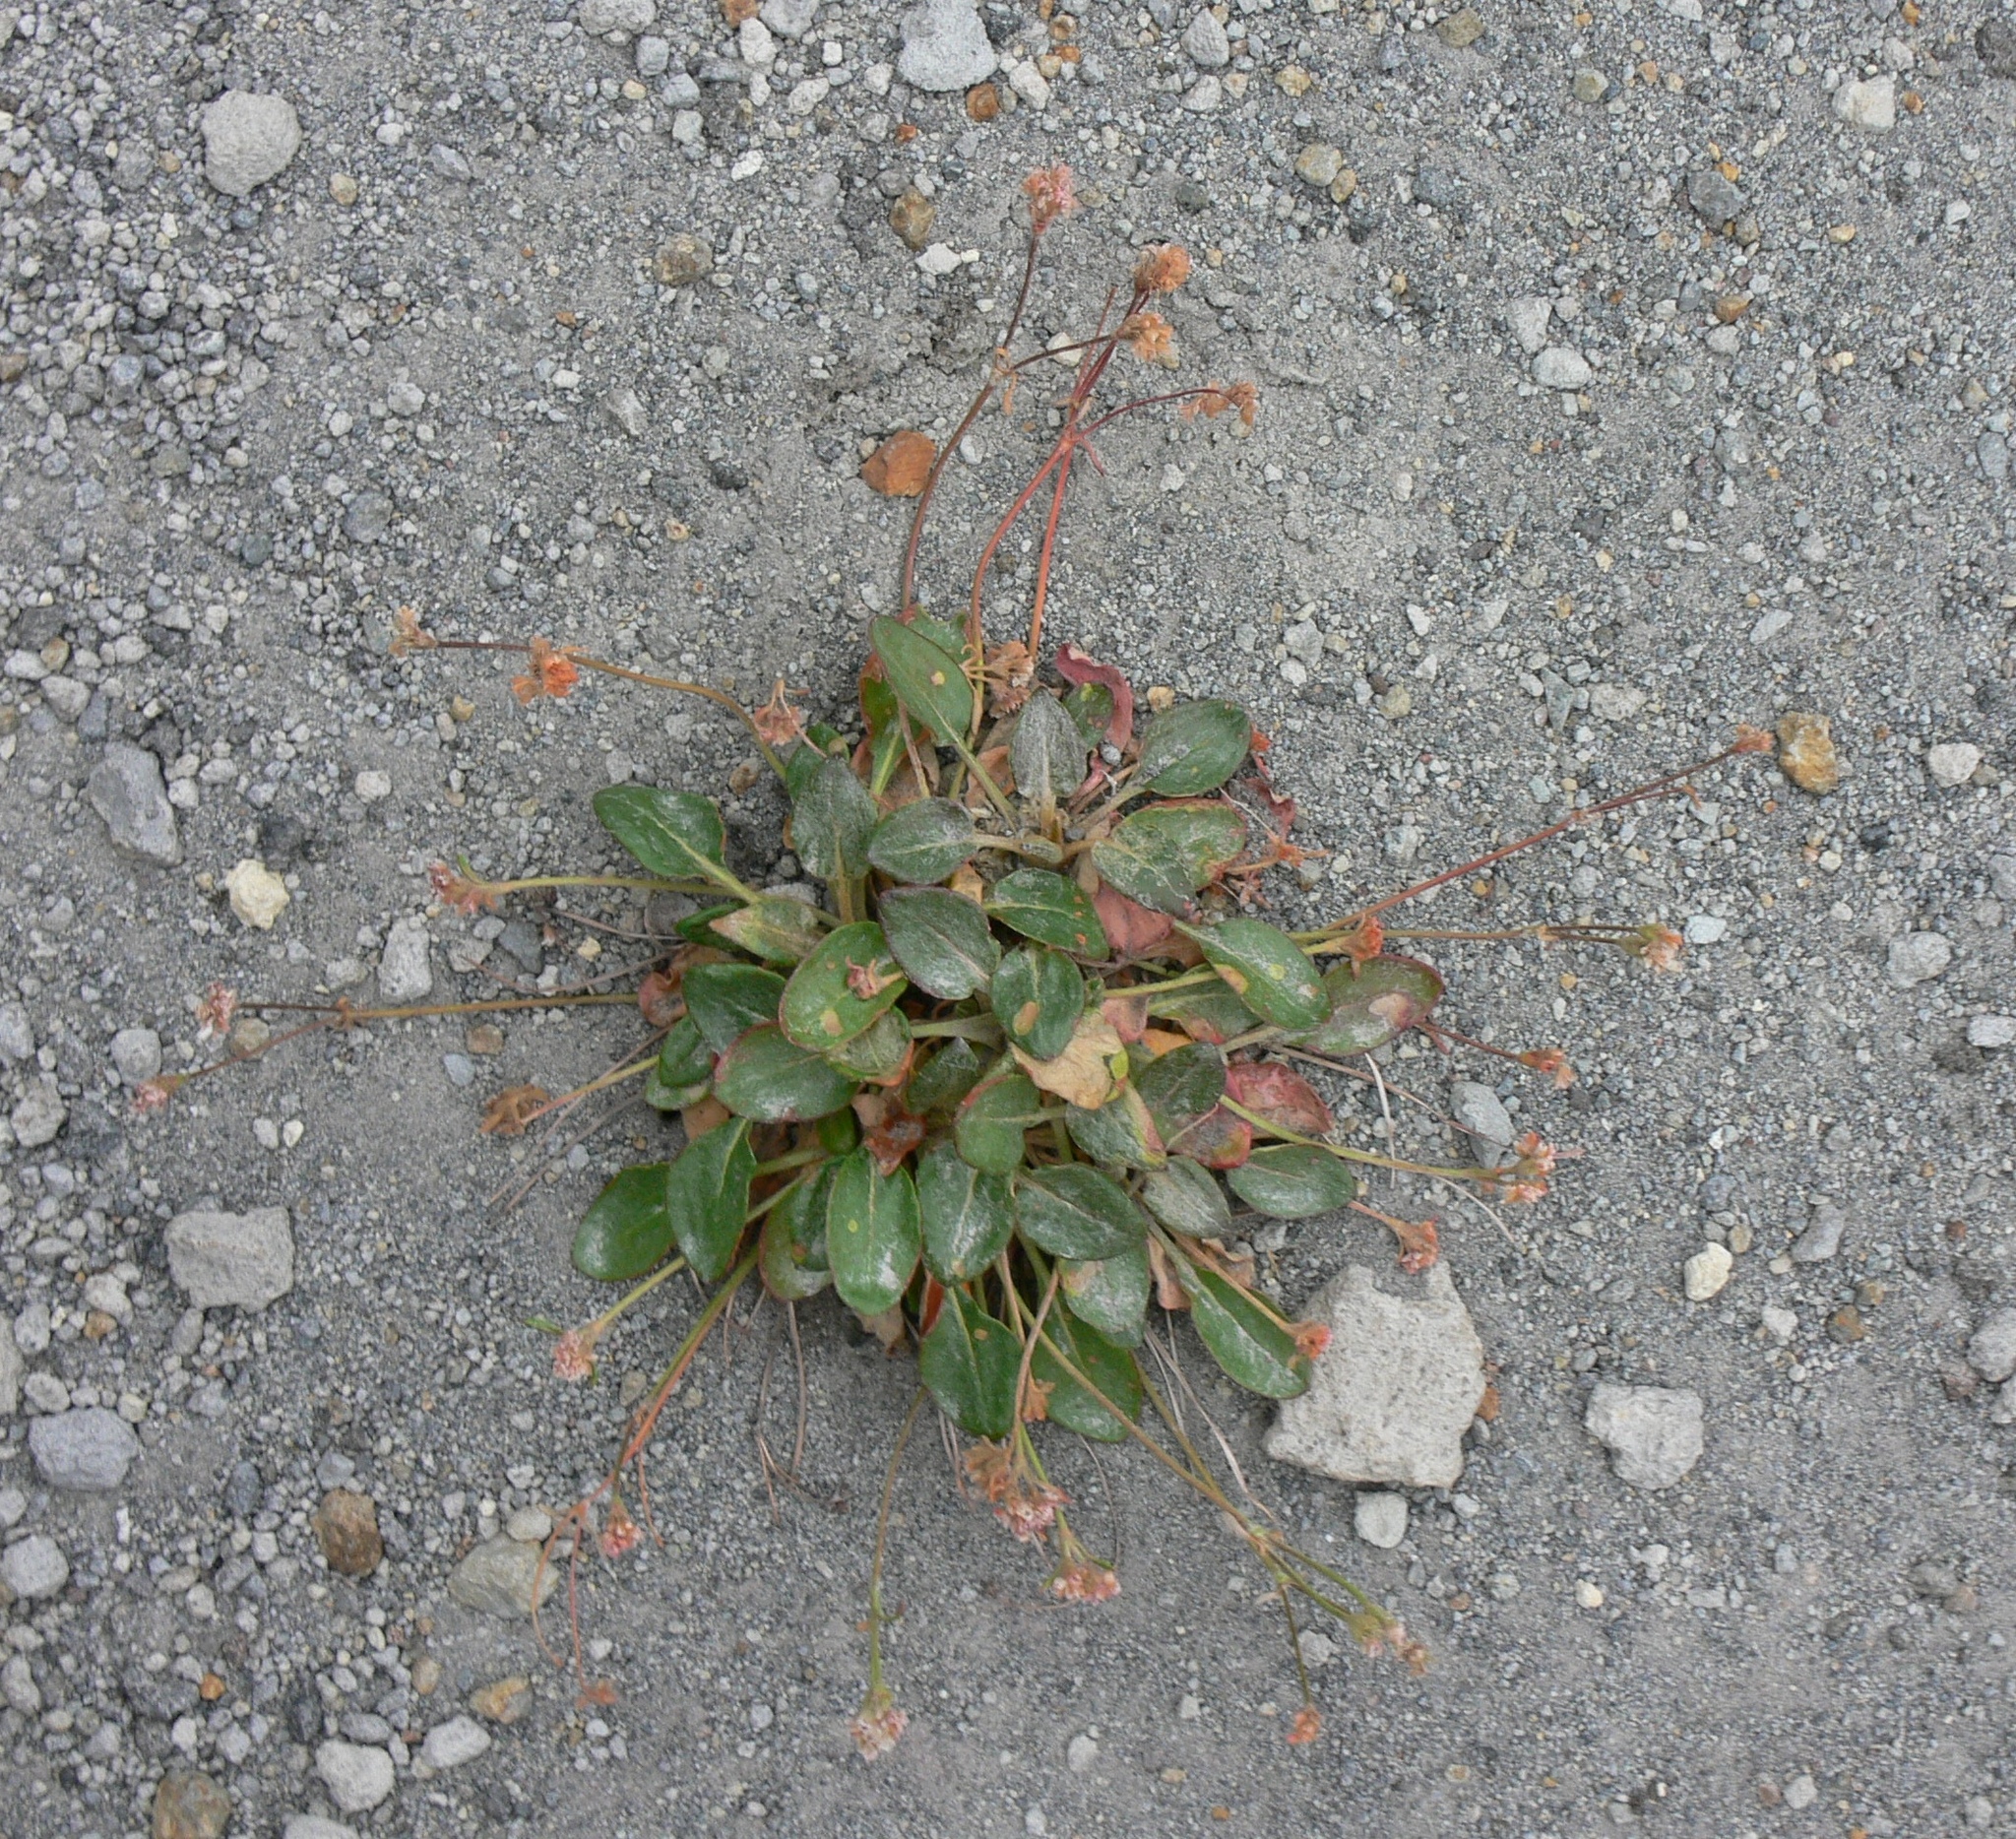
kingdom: Plantae
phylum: Tracheophyta
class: Magnoliopsida
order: Caryophyllales
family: Polygonaceae
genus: Eriogonum
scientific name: Eriogonum pyrolifolium
